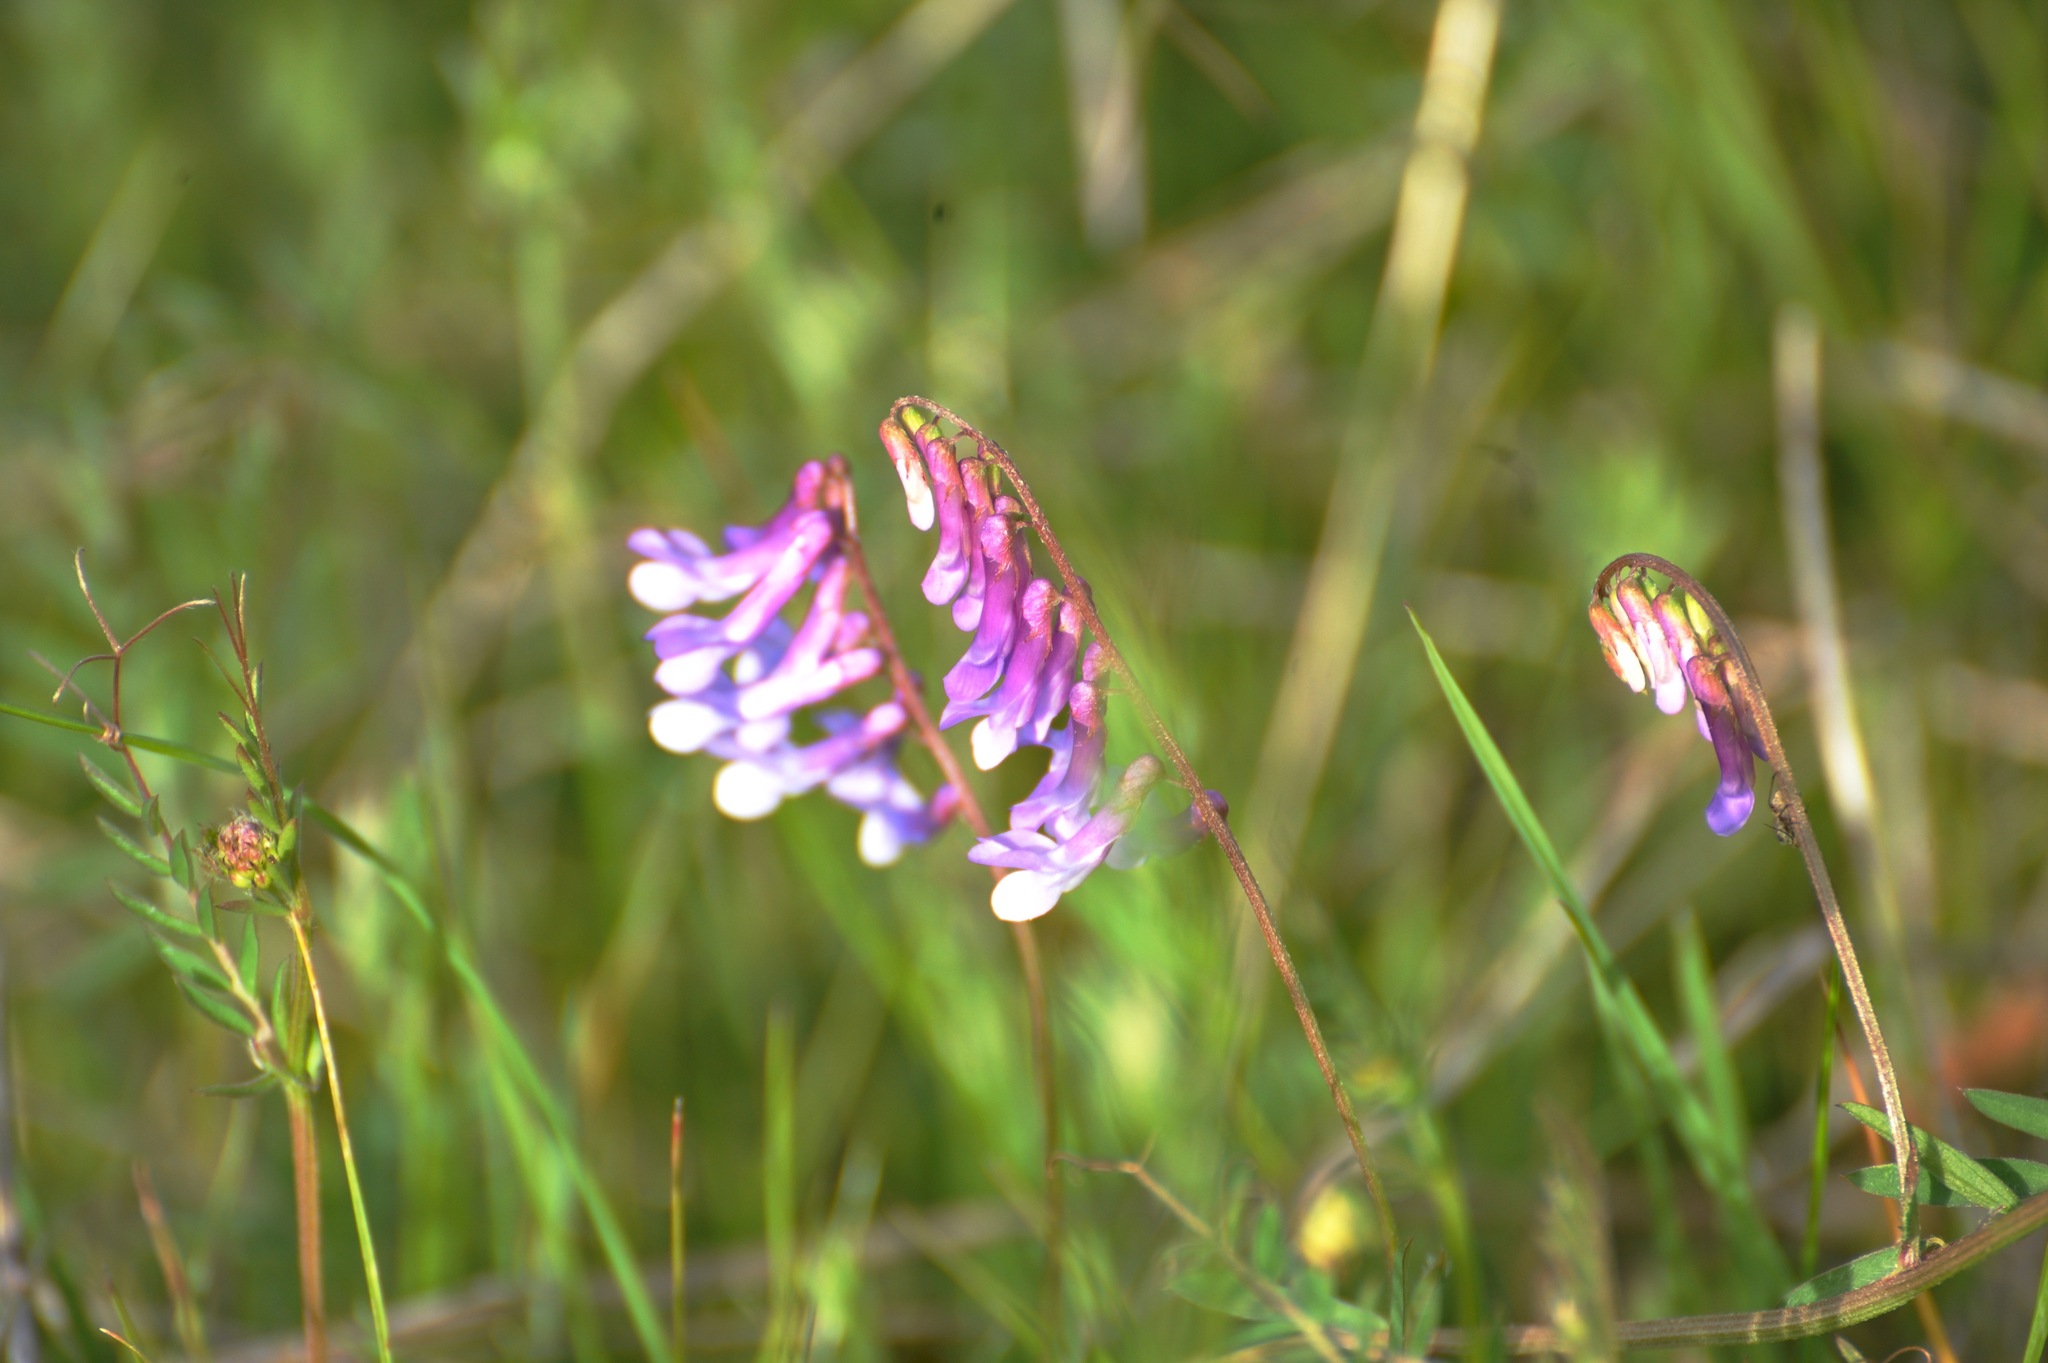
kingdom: Plantae
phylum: Tracheophyta
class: Magnoliopsida
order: Fabales
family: Fabaceae
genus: Vicia
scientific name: Vicia villosa
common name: Fodder vetch
